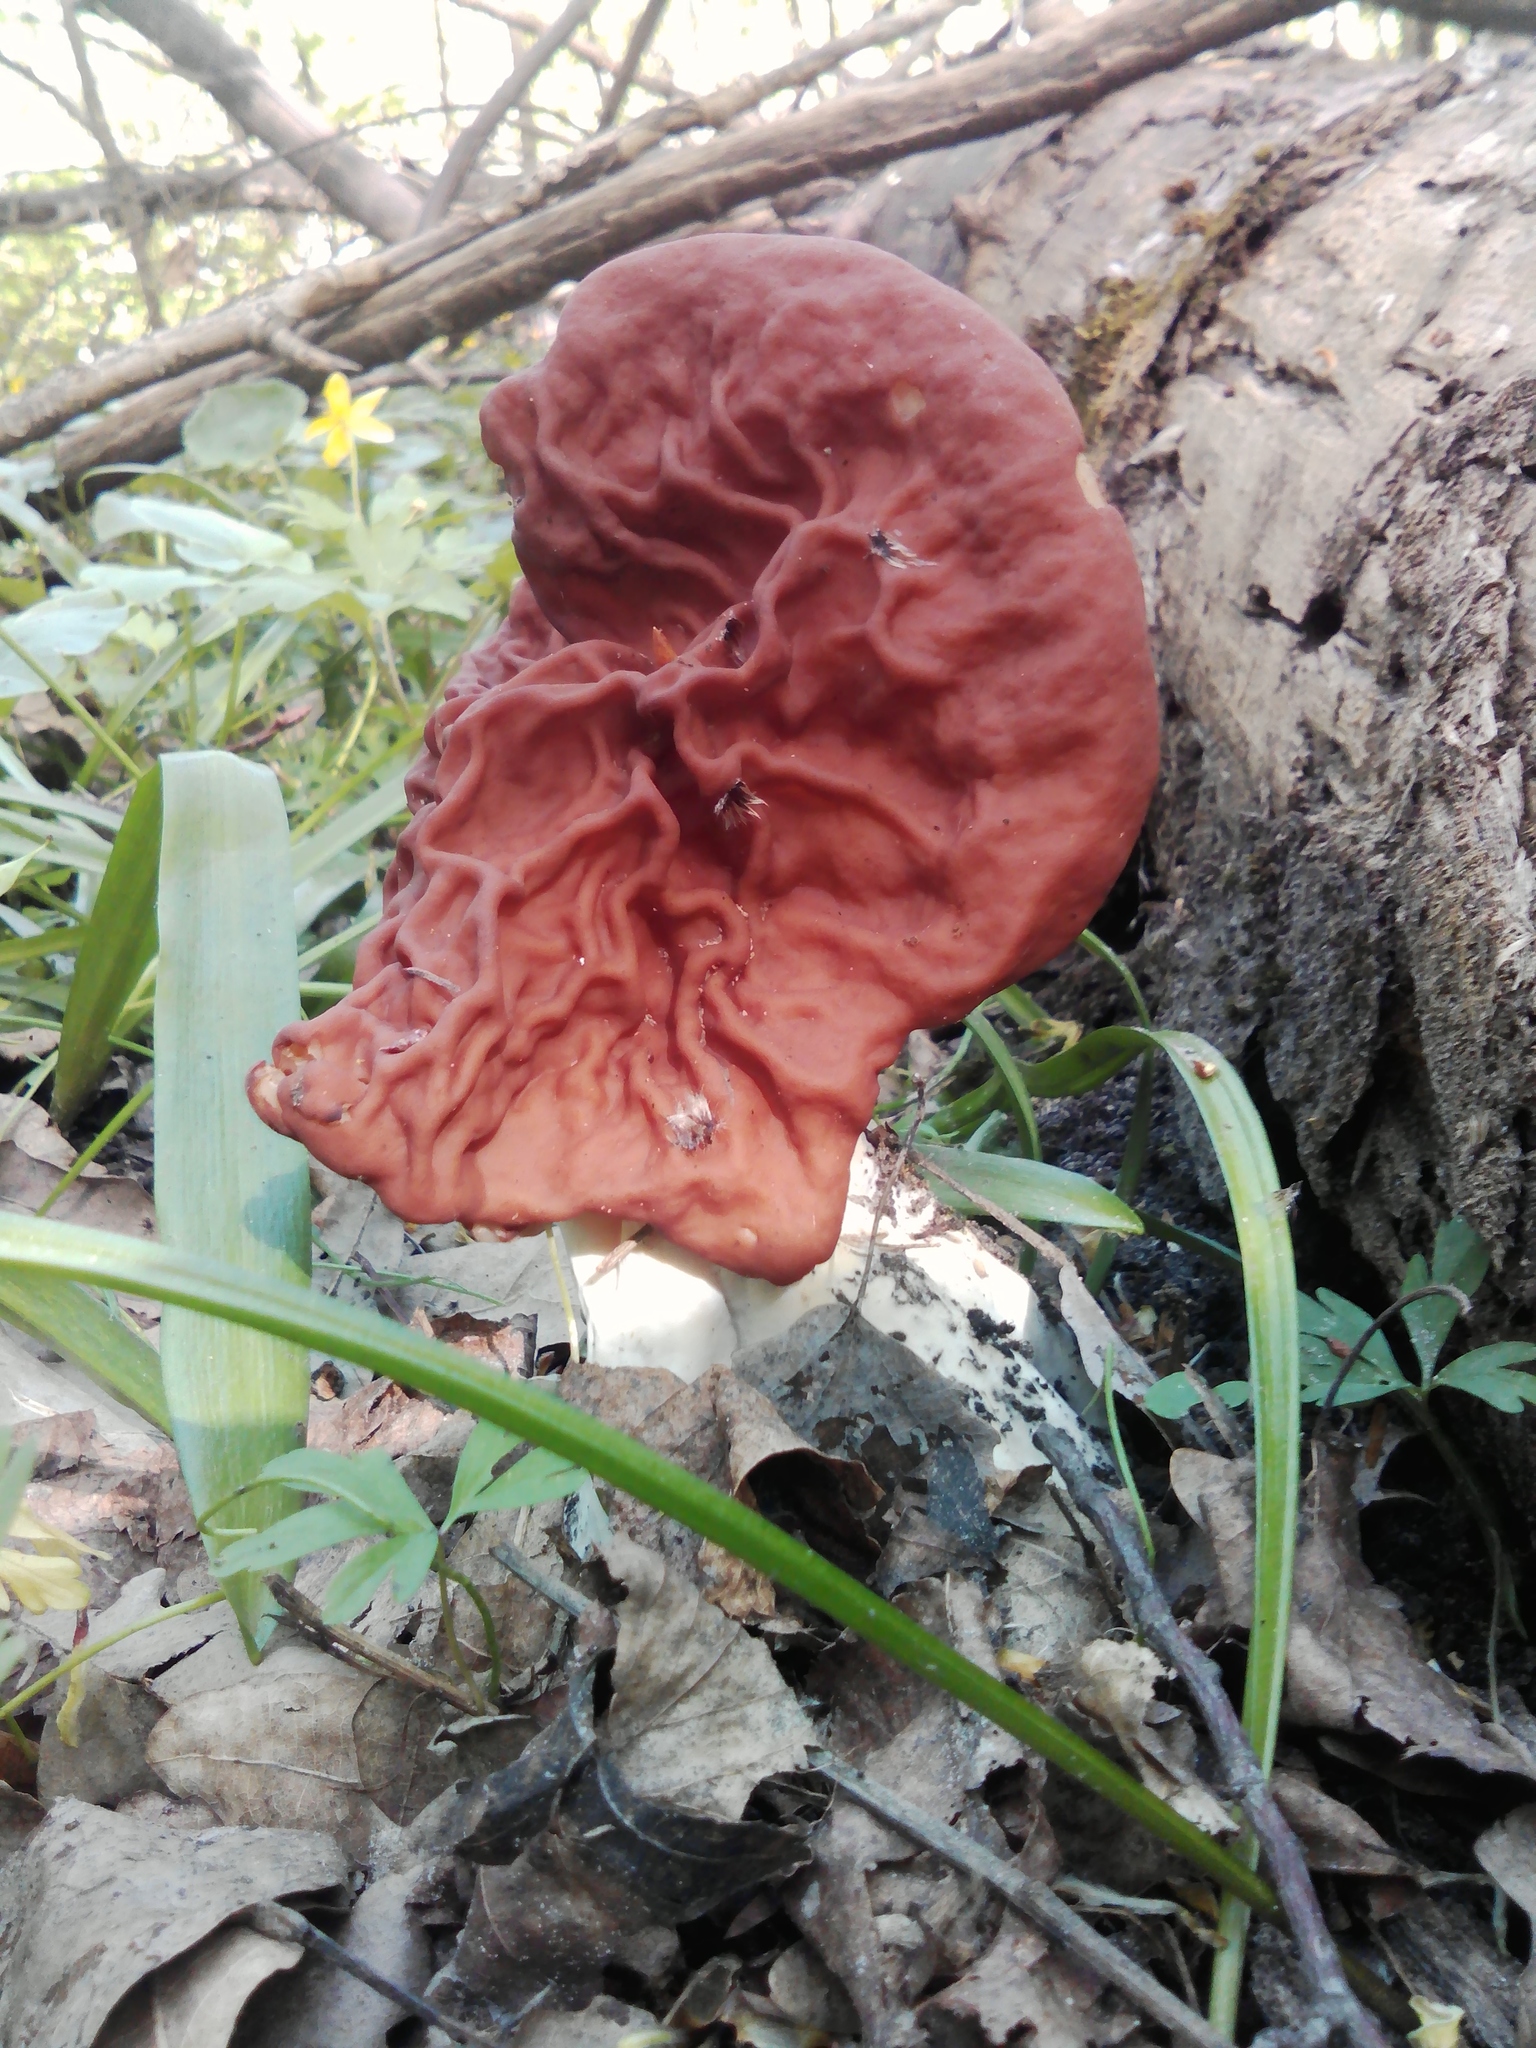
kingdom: Fungi
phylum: Ascomycota
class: Pezizomycetes
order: Pezizales
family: Discinaceae
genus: Discina
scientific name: Discina fastigiata
